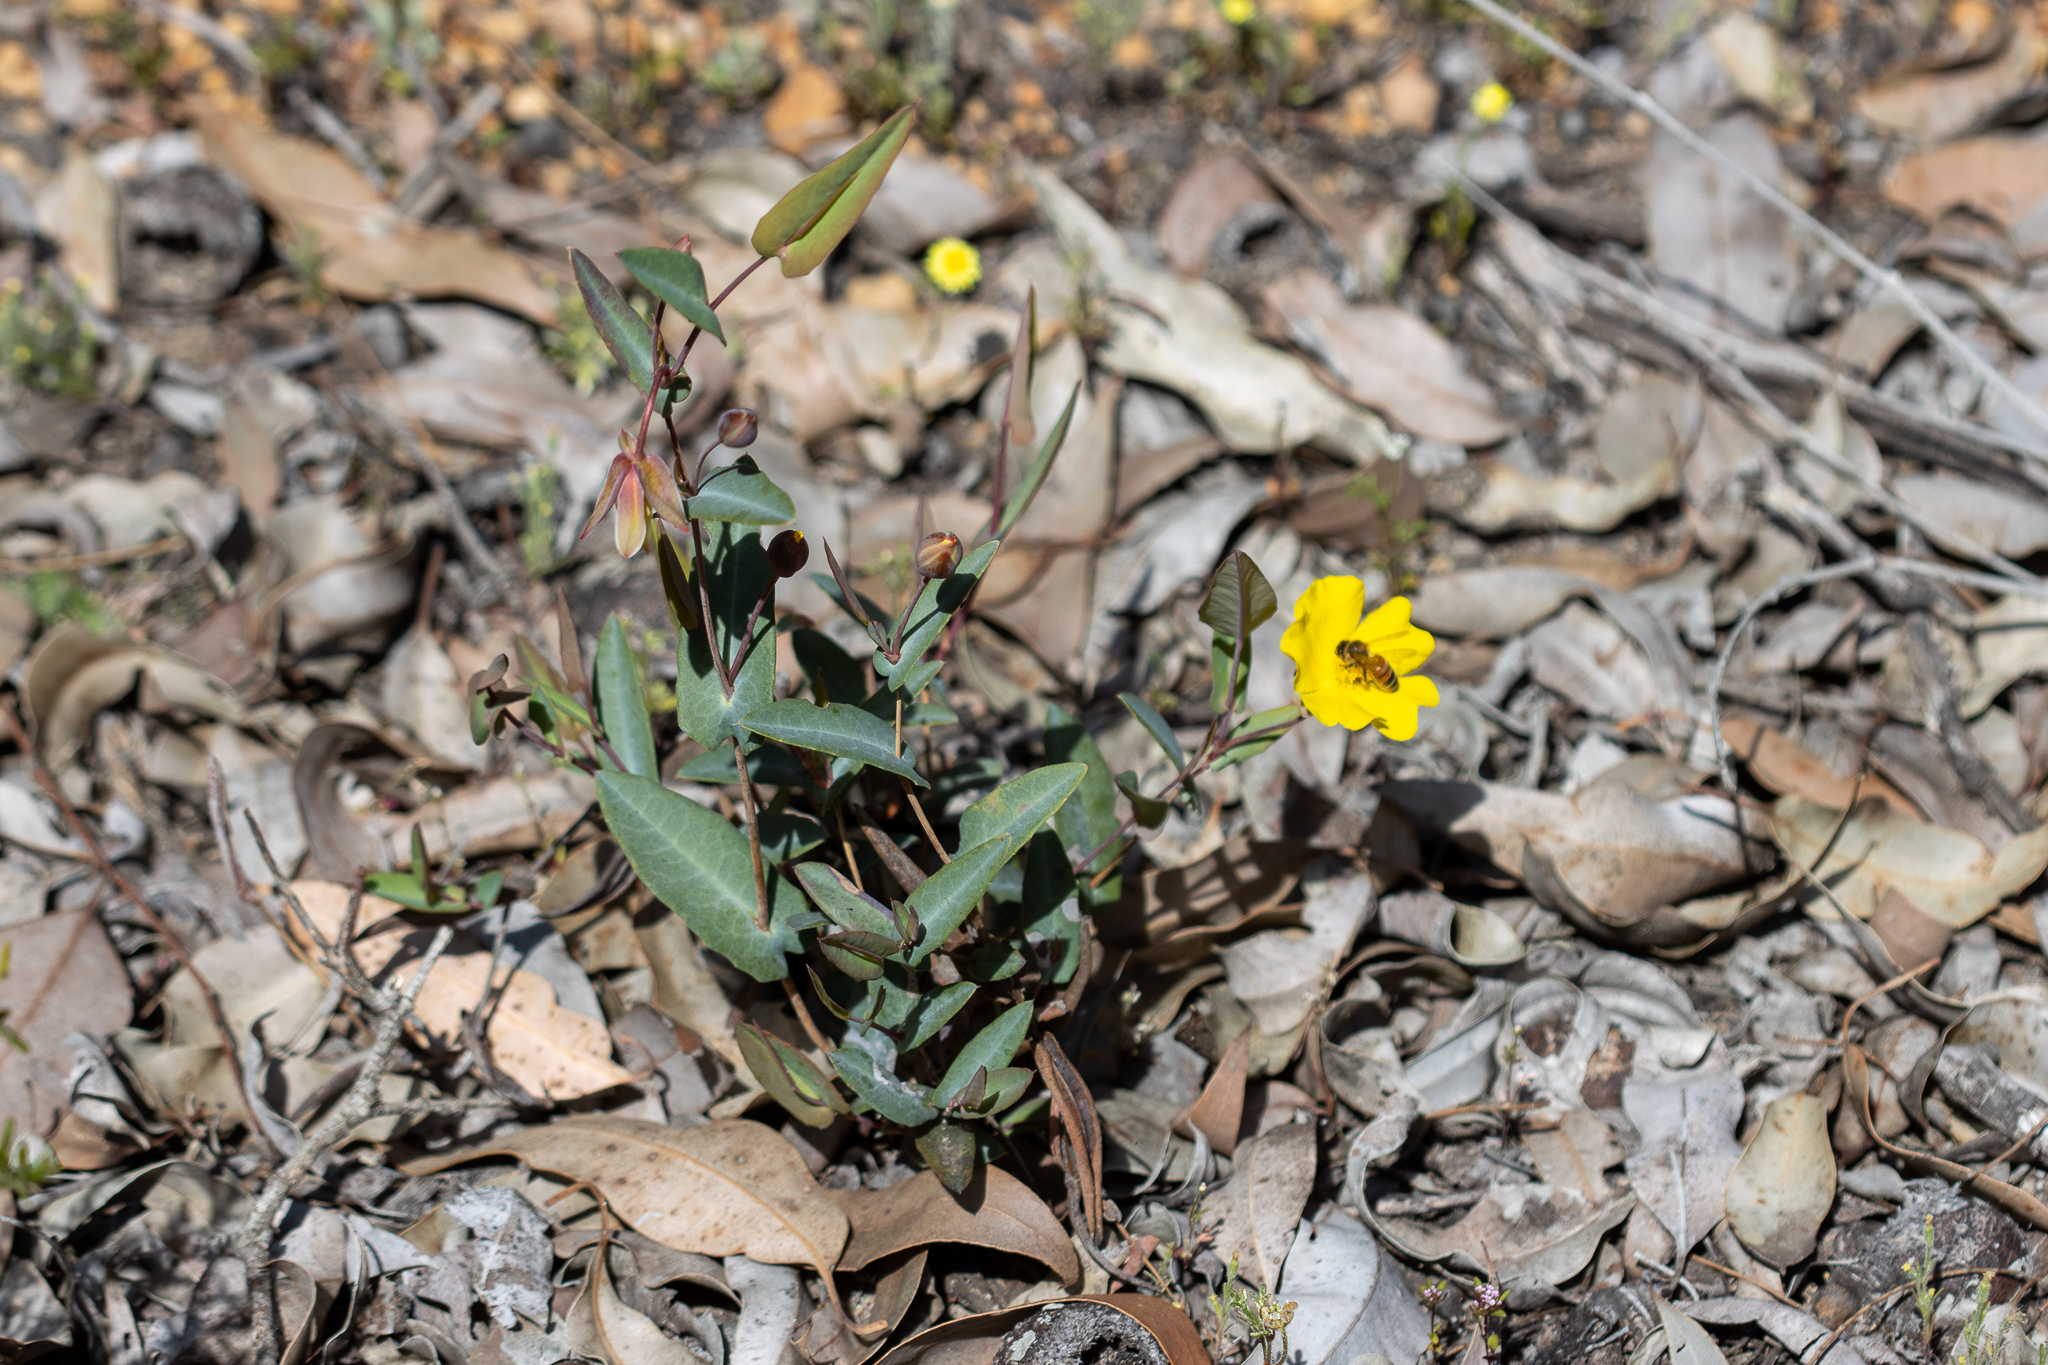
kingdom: Plantae
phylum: Tracheophyta
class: Magnoliopsida
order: Dilleniales
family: Dilleniaceae
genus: Hibbertia
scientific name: Hibbertia cunninghamii
